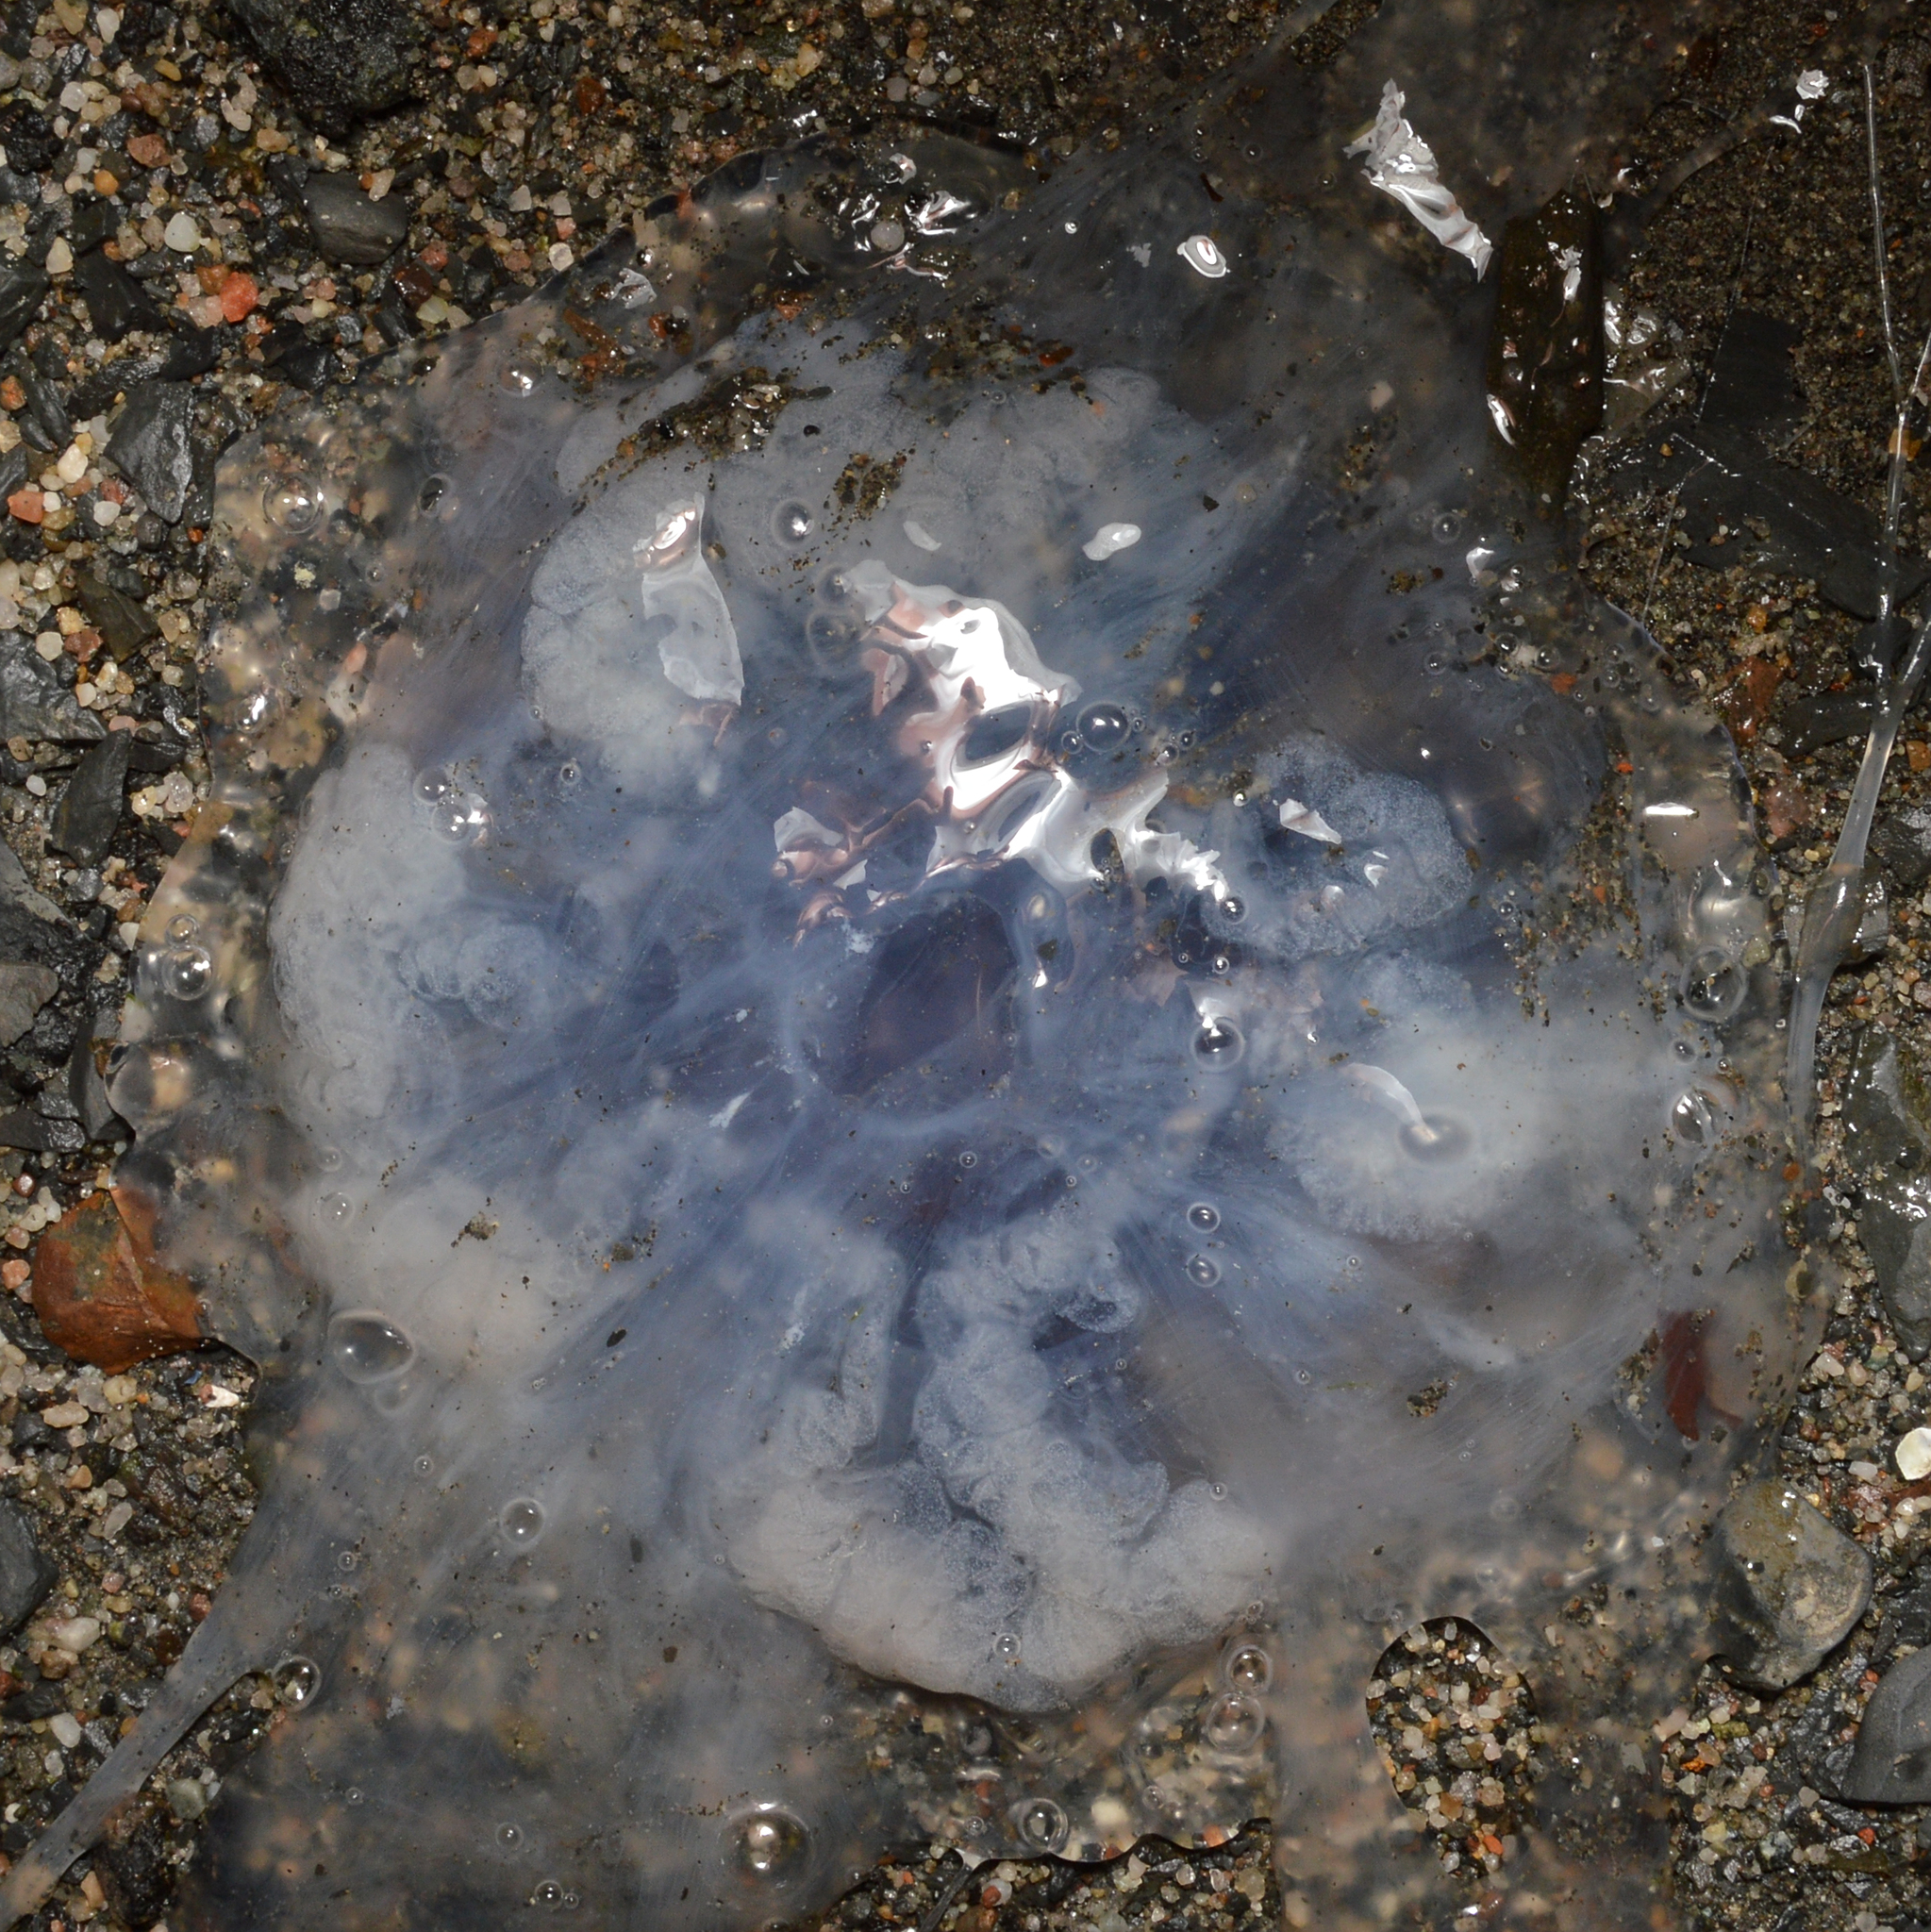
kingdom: Animalia
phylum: Cnidaria
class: Scyphozoa
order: Semaeostomeae
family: Cyaneidae
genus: Cyanea
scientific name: Cyanea lamarckii
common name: Blue jellyfish
